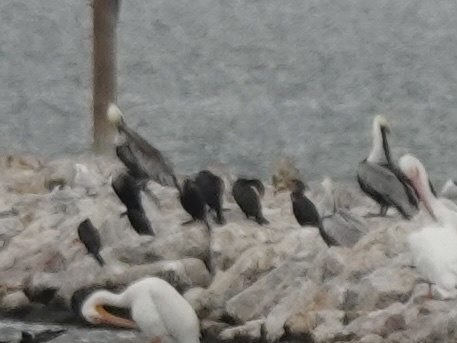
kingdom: Animalia
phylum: Chordata
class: Aves
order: Pelecaniformes
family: Pelecanidae
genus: Pelecanus
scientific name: Pelecanus occidentalis
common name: Brown pelican
